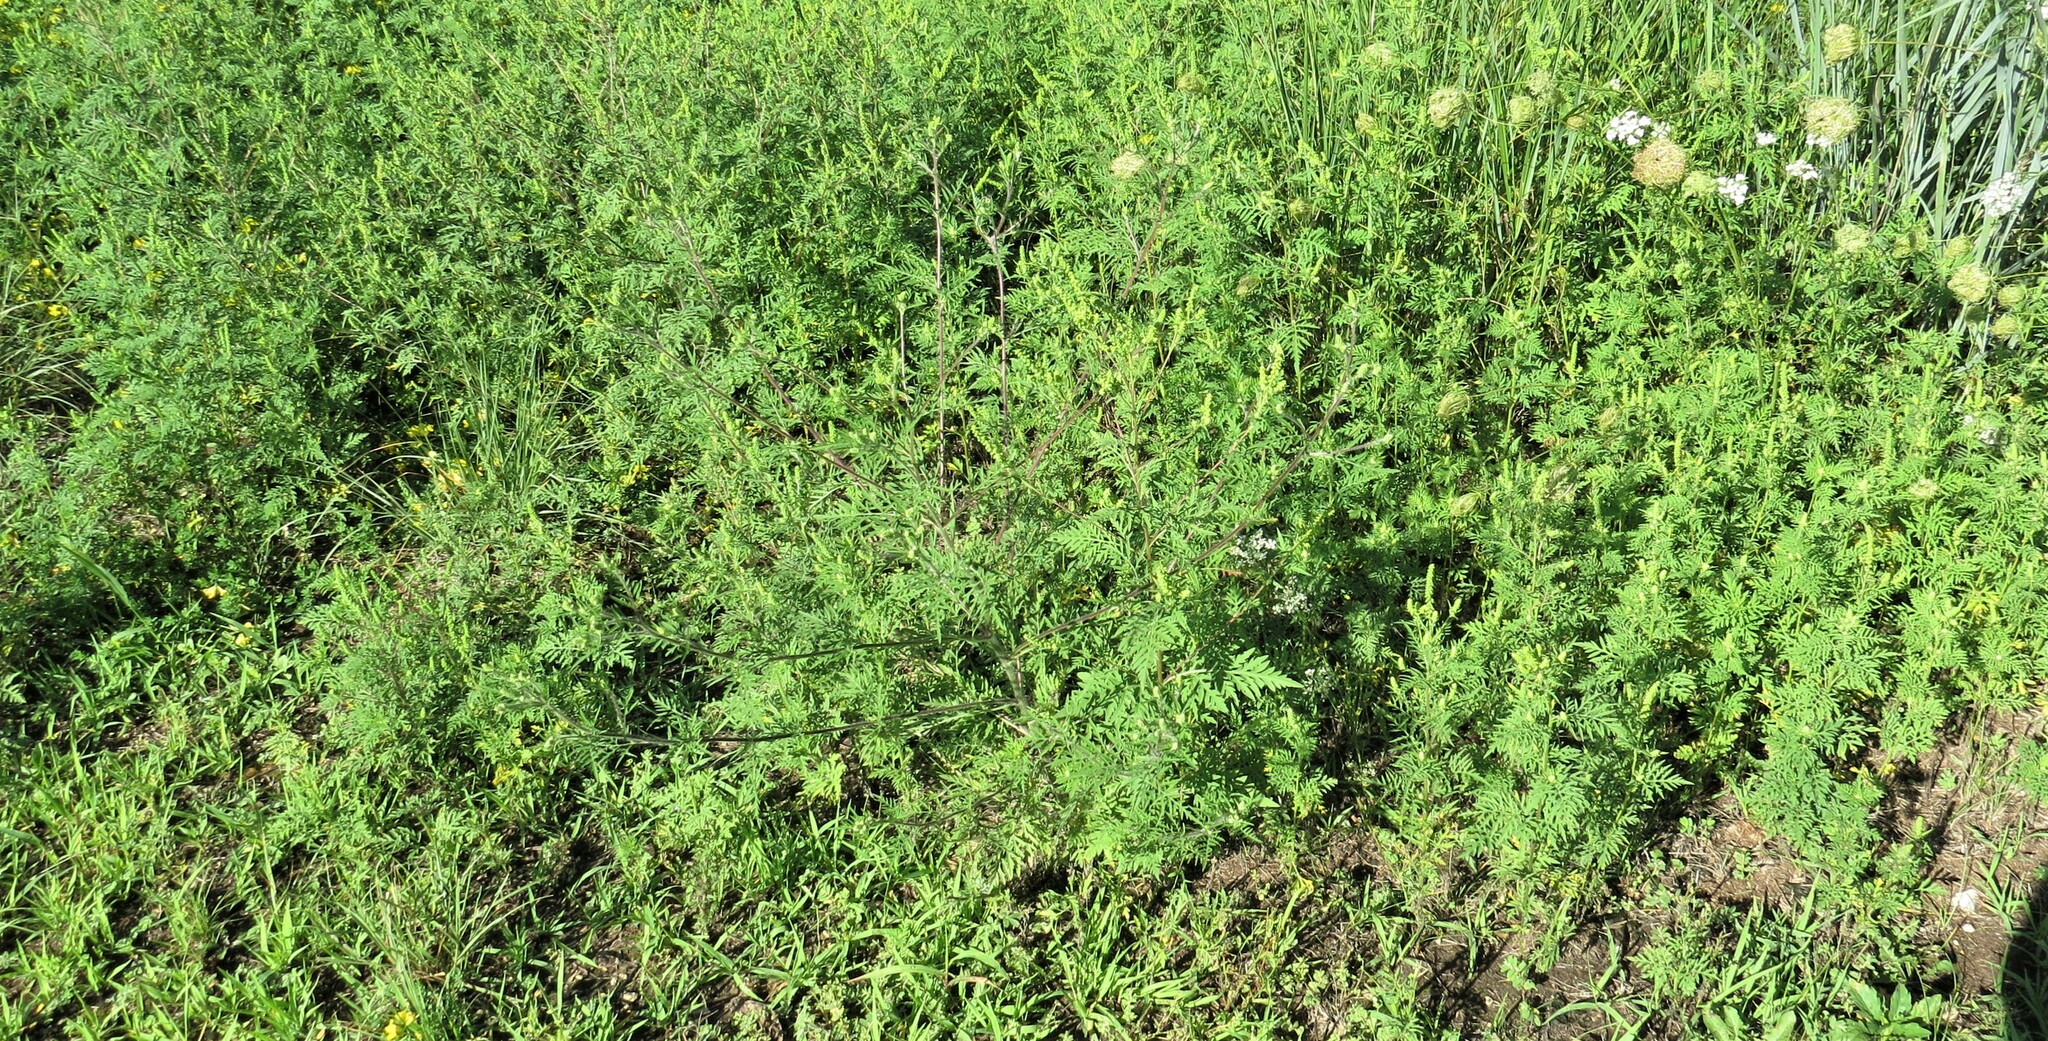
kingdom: Plantae
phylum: Tracheophyta
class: Magnoliopsida
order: Asterales
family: Asteraceae
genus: Ambrosia
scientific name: Ambrosia artemisiifolia
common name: Annual ragweed
